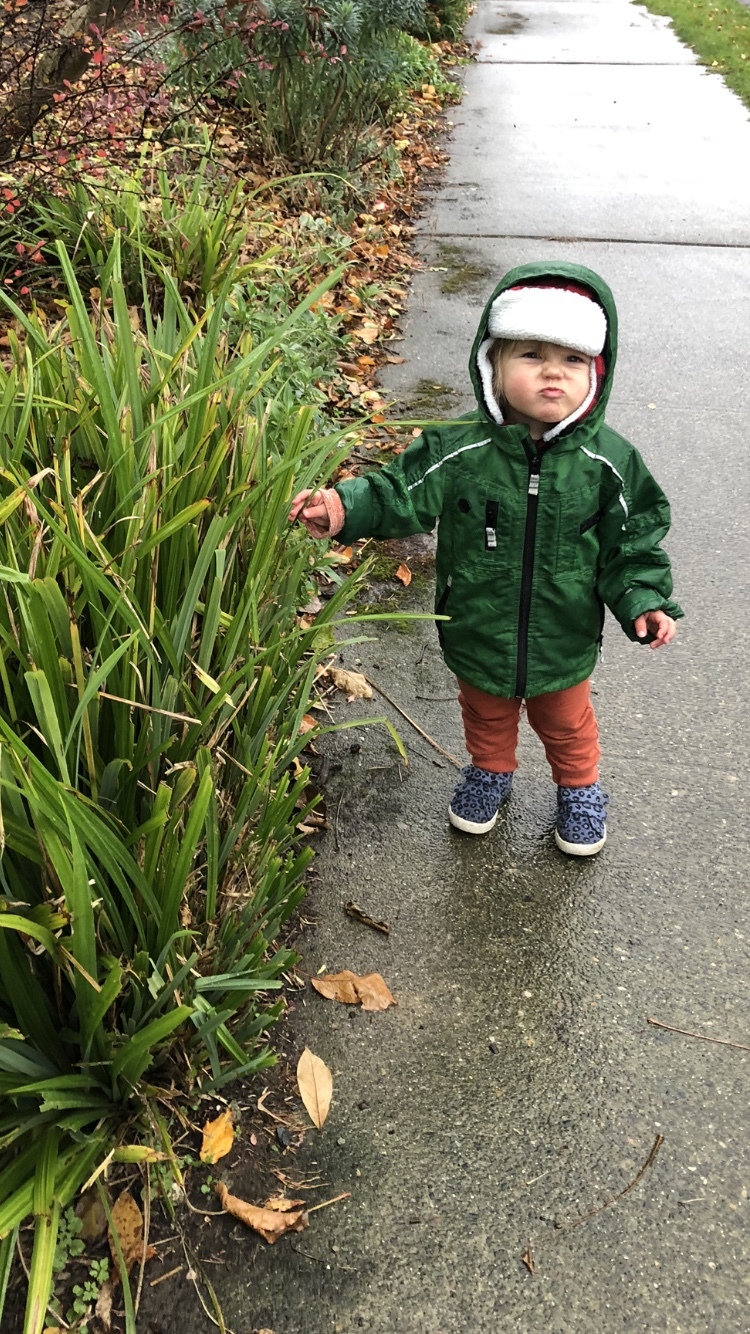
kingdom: Plantae
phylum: Tracheophyta
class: Liliopsida
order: Poales
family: Cyperaceae
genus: Carex
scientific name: Carex pendula
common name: Pendulous sedge
